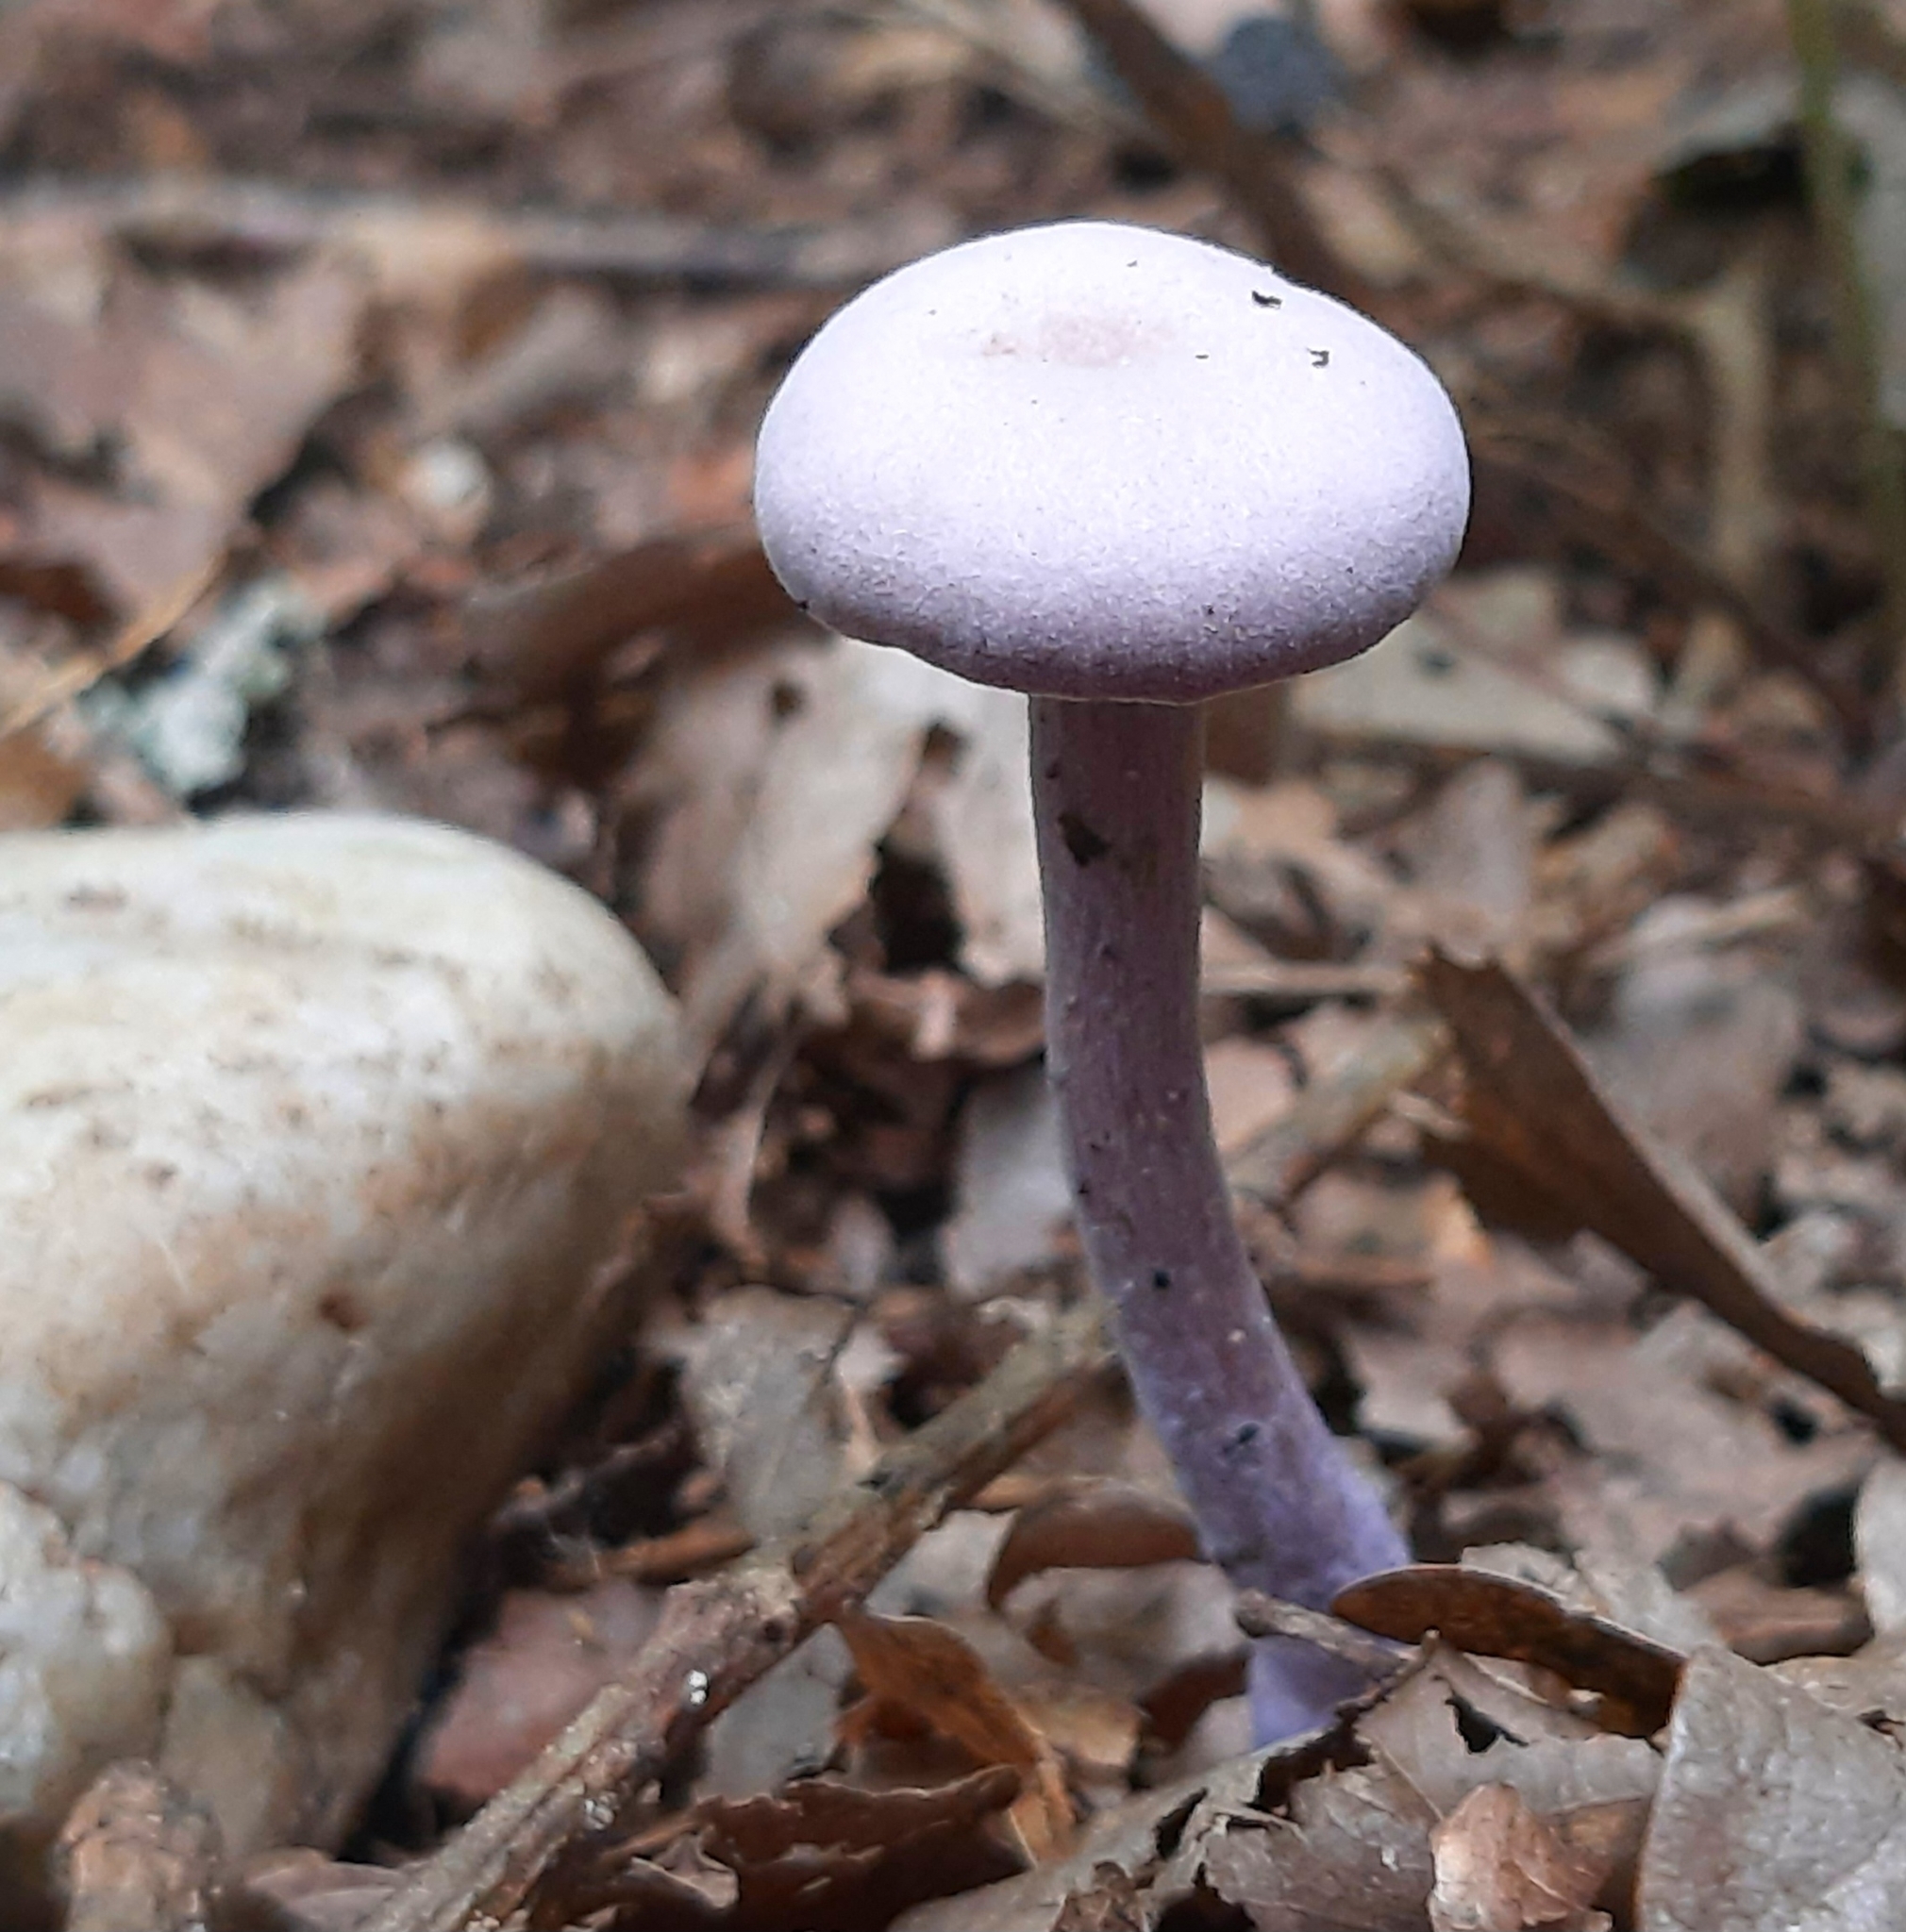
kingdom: Fungi
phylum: Basidiomycota
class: Agaricomycetes
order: Agaricales
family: Hydnangiaceae
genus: Laccaria
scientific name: Laccaria amethystina
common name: Amethyst deceiver
